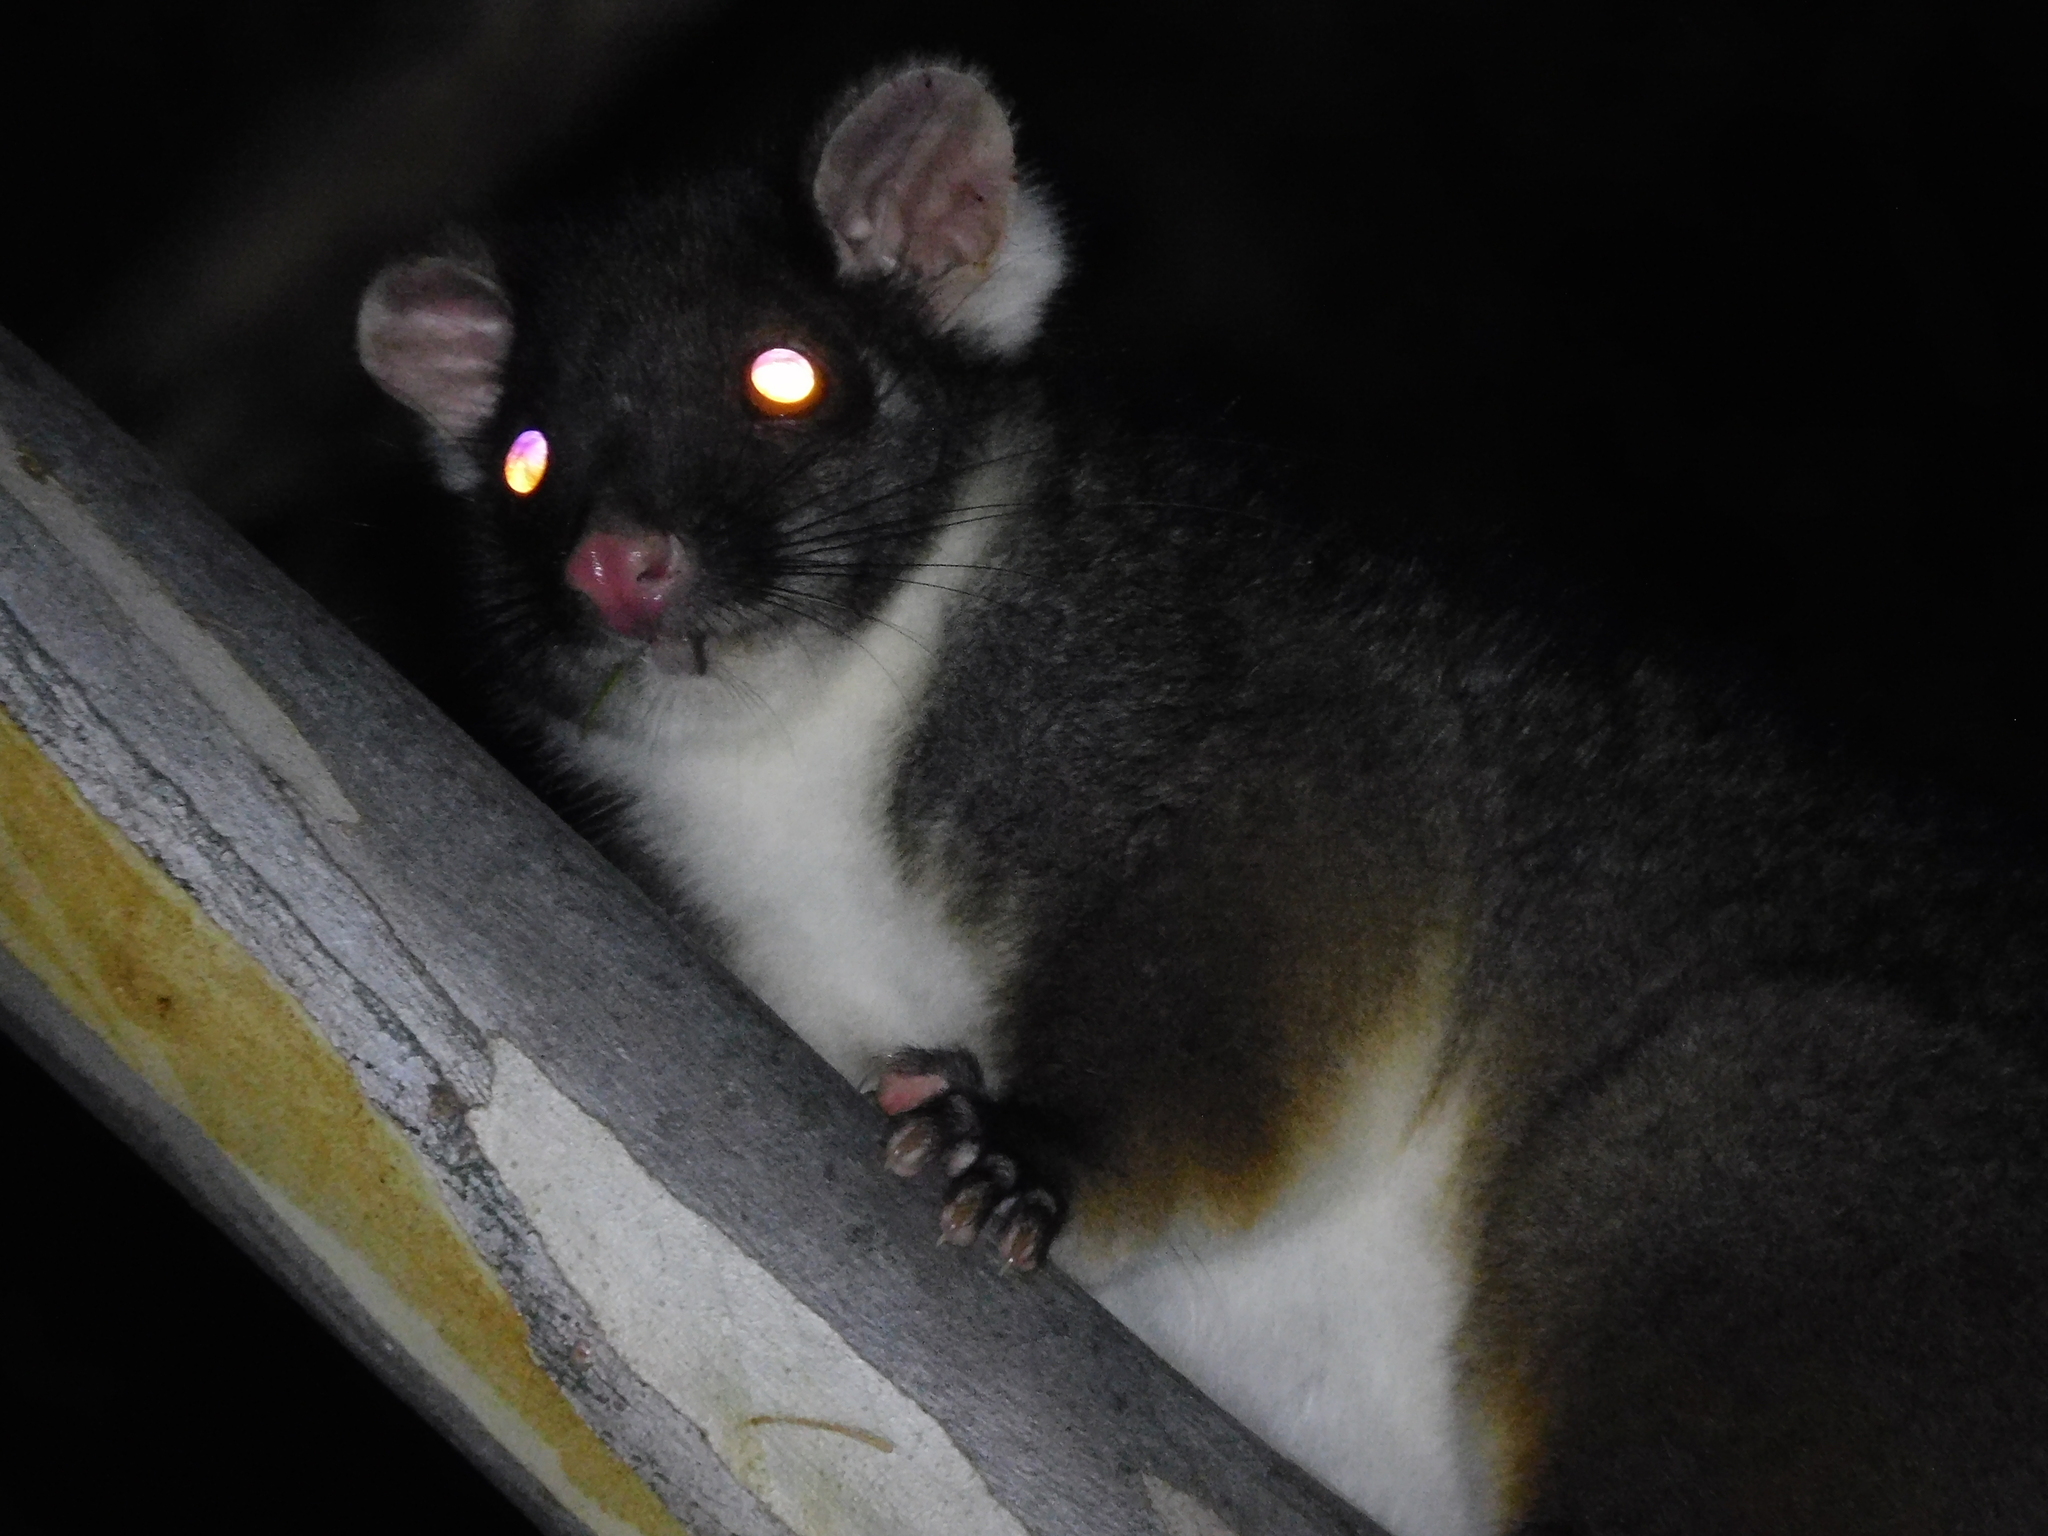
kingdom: Animalia
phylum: Chordata
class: Mammalia
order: Diprotodontia
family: Pseudocheiridae
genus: Pseudocheirus
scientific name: Pseudocheirus peregrinus
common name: Common ringtail possum
